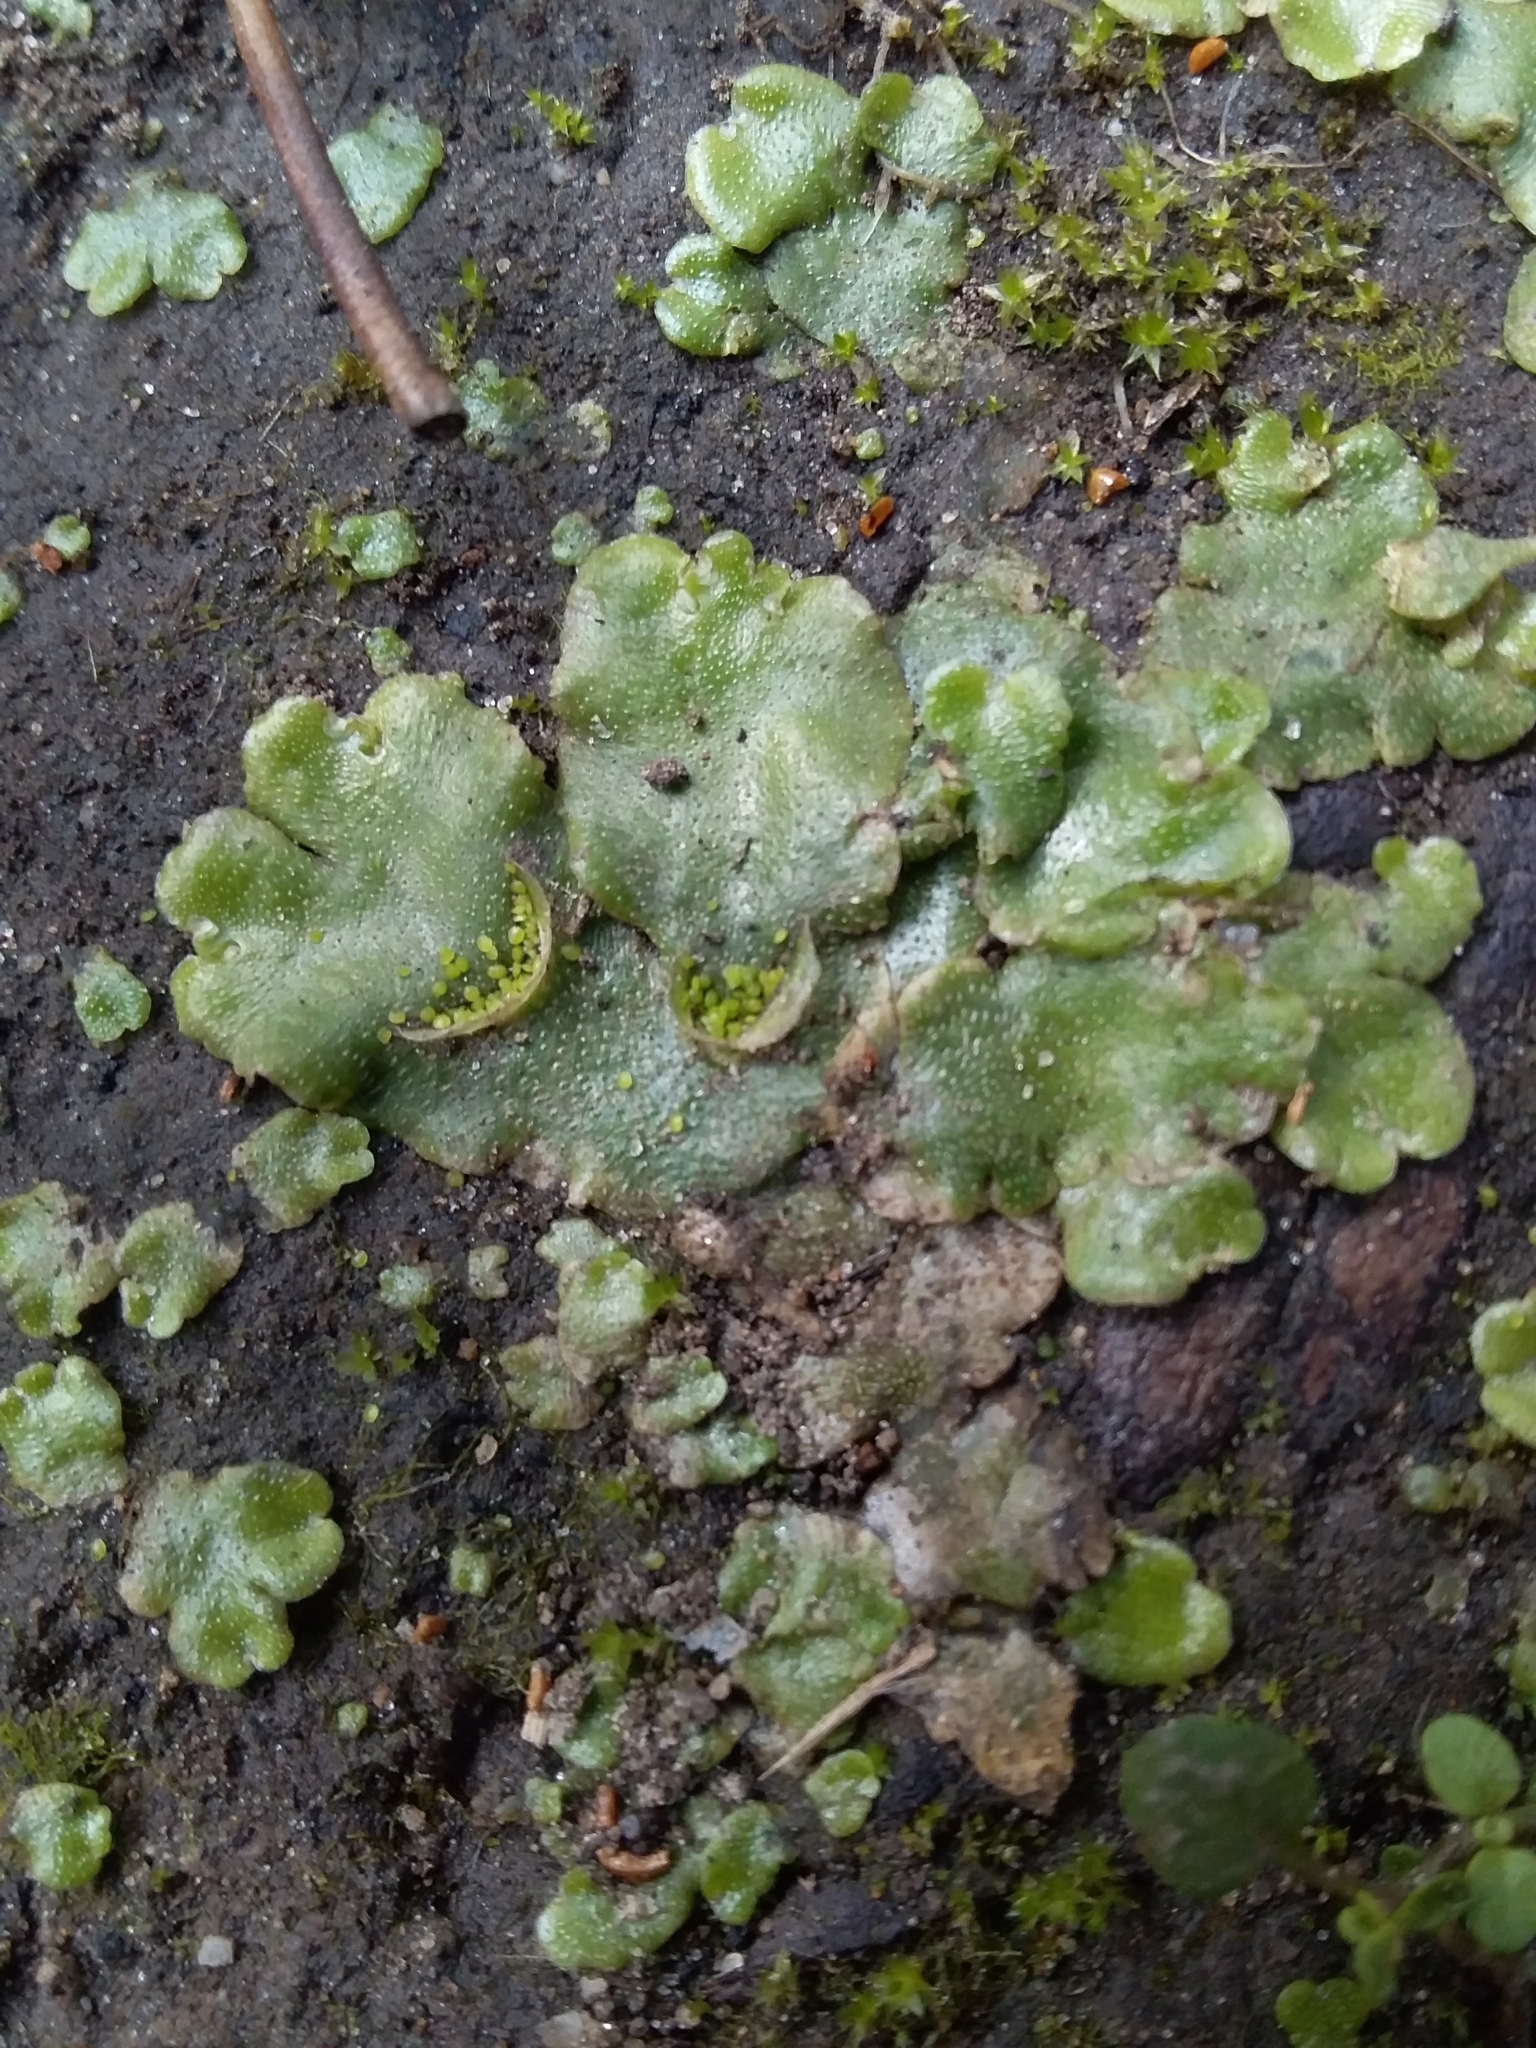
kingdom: Plantae
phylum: Marchantiophyta
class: Marchantiopsida
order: Lunulariales
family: Lunulariaceae
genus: Lunularia
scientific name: Lunularia cruciata
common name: Crescent-cup liverwort
